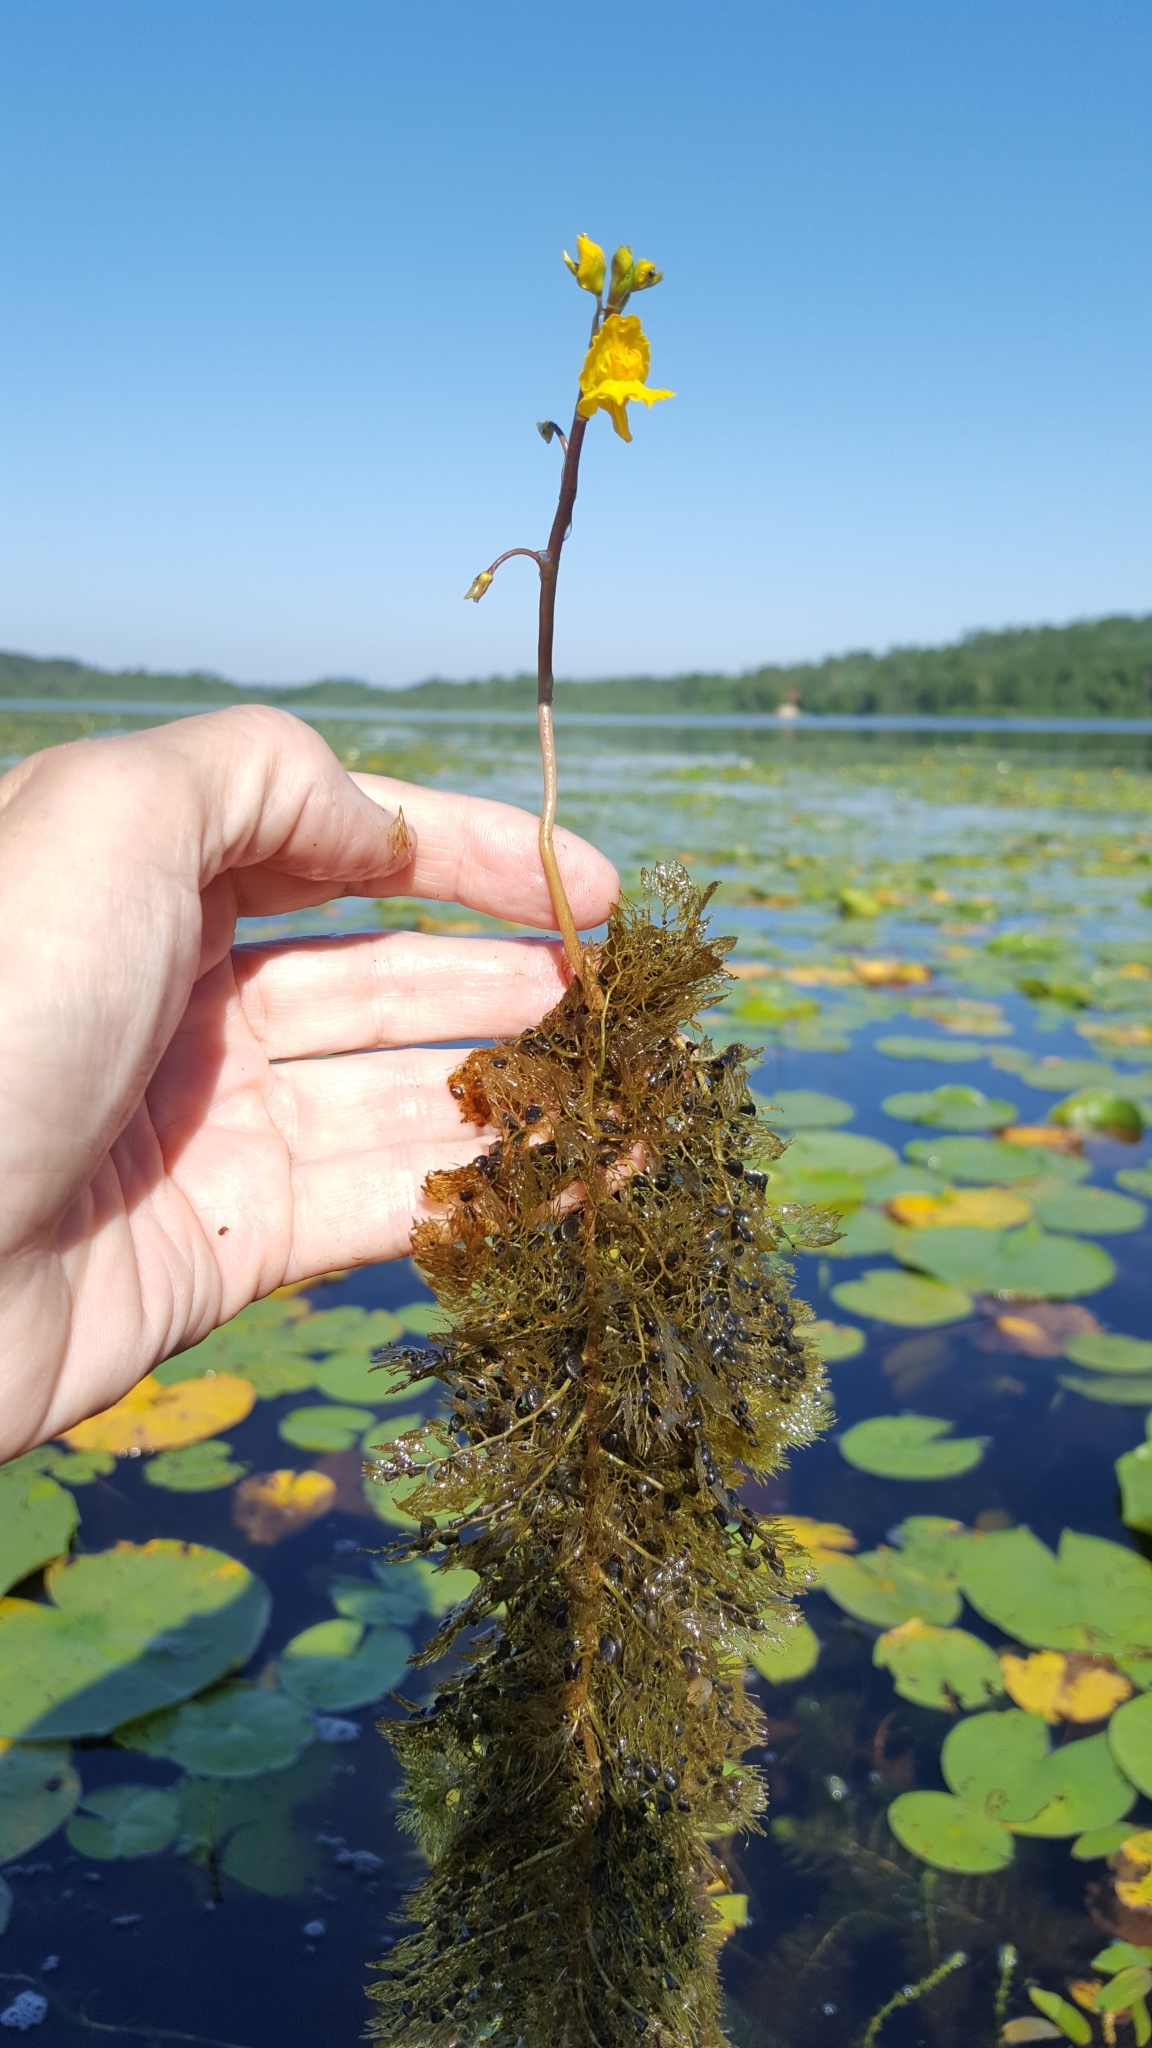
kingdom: Plantae
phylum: Tracheophyta
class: Magnoliopsida
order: Lamiales
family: Lentibulariaceae
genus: Utricularia
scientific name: Utricularia macrorhiza
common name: Common bladderwort
